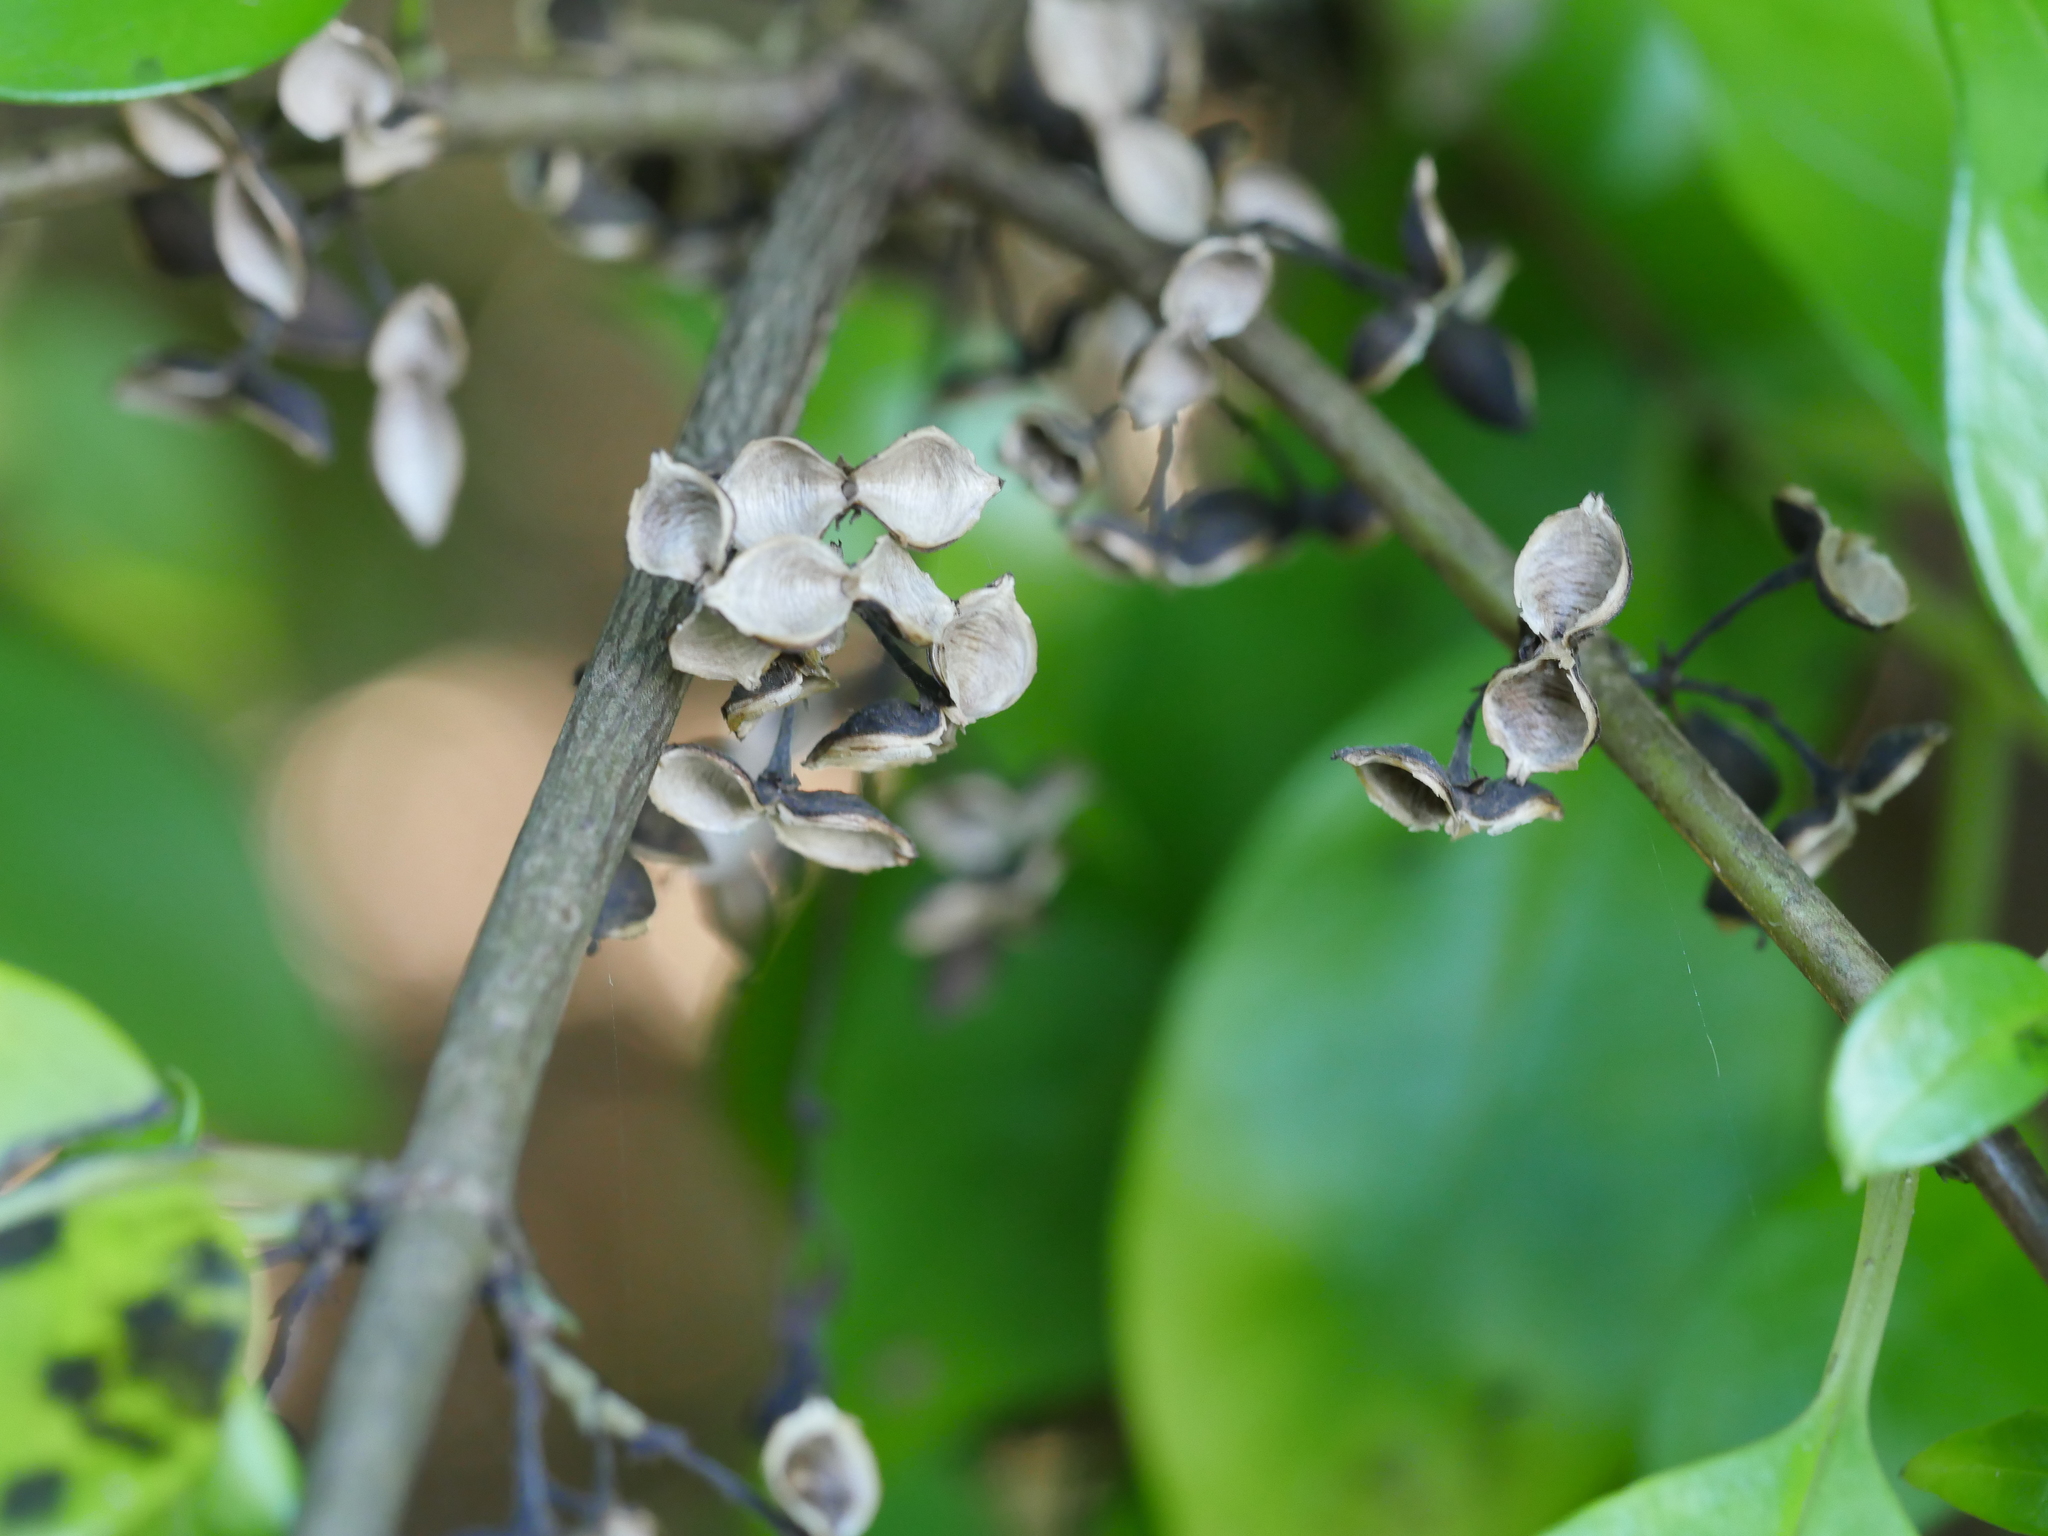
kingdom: Plantae
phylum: Tracheophyta
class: Magnoliopsida
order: Gentianales
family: Loganiaceae
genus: Geniostoma
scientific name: Geniostoma ligustrifolium
